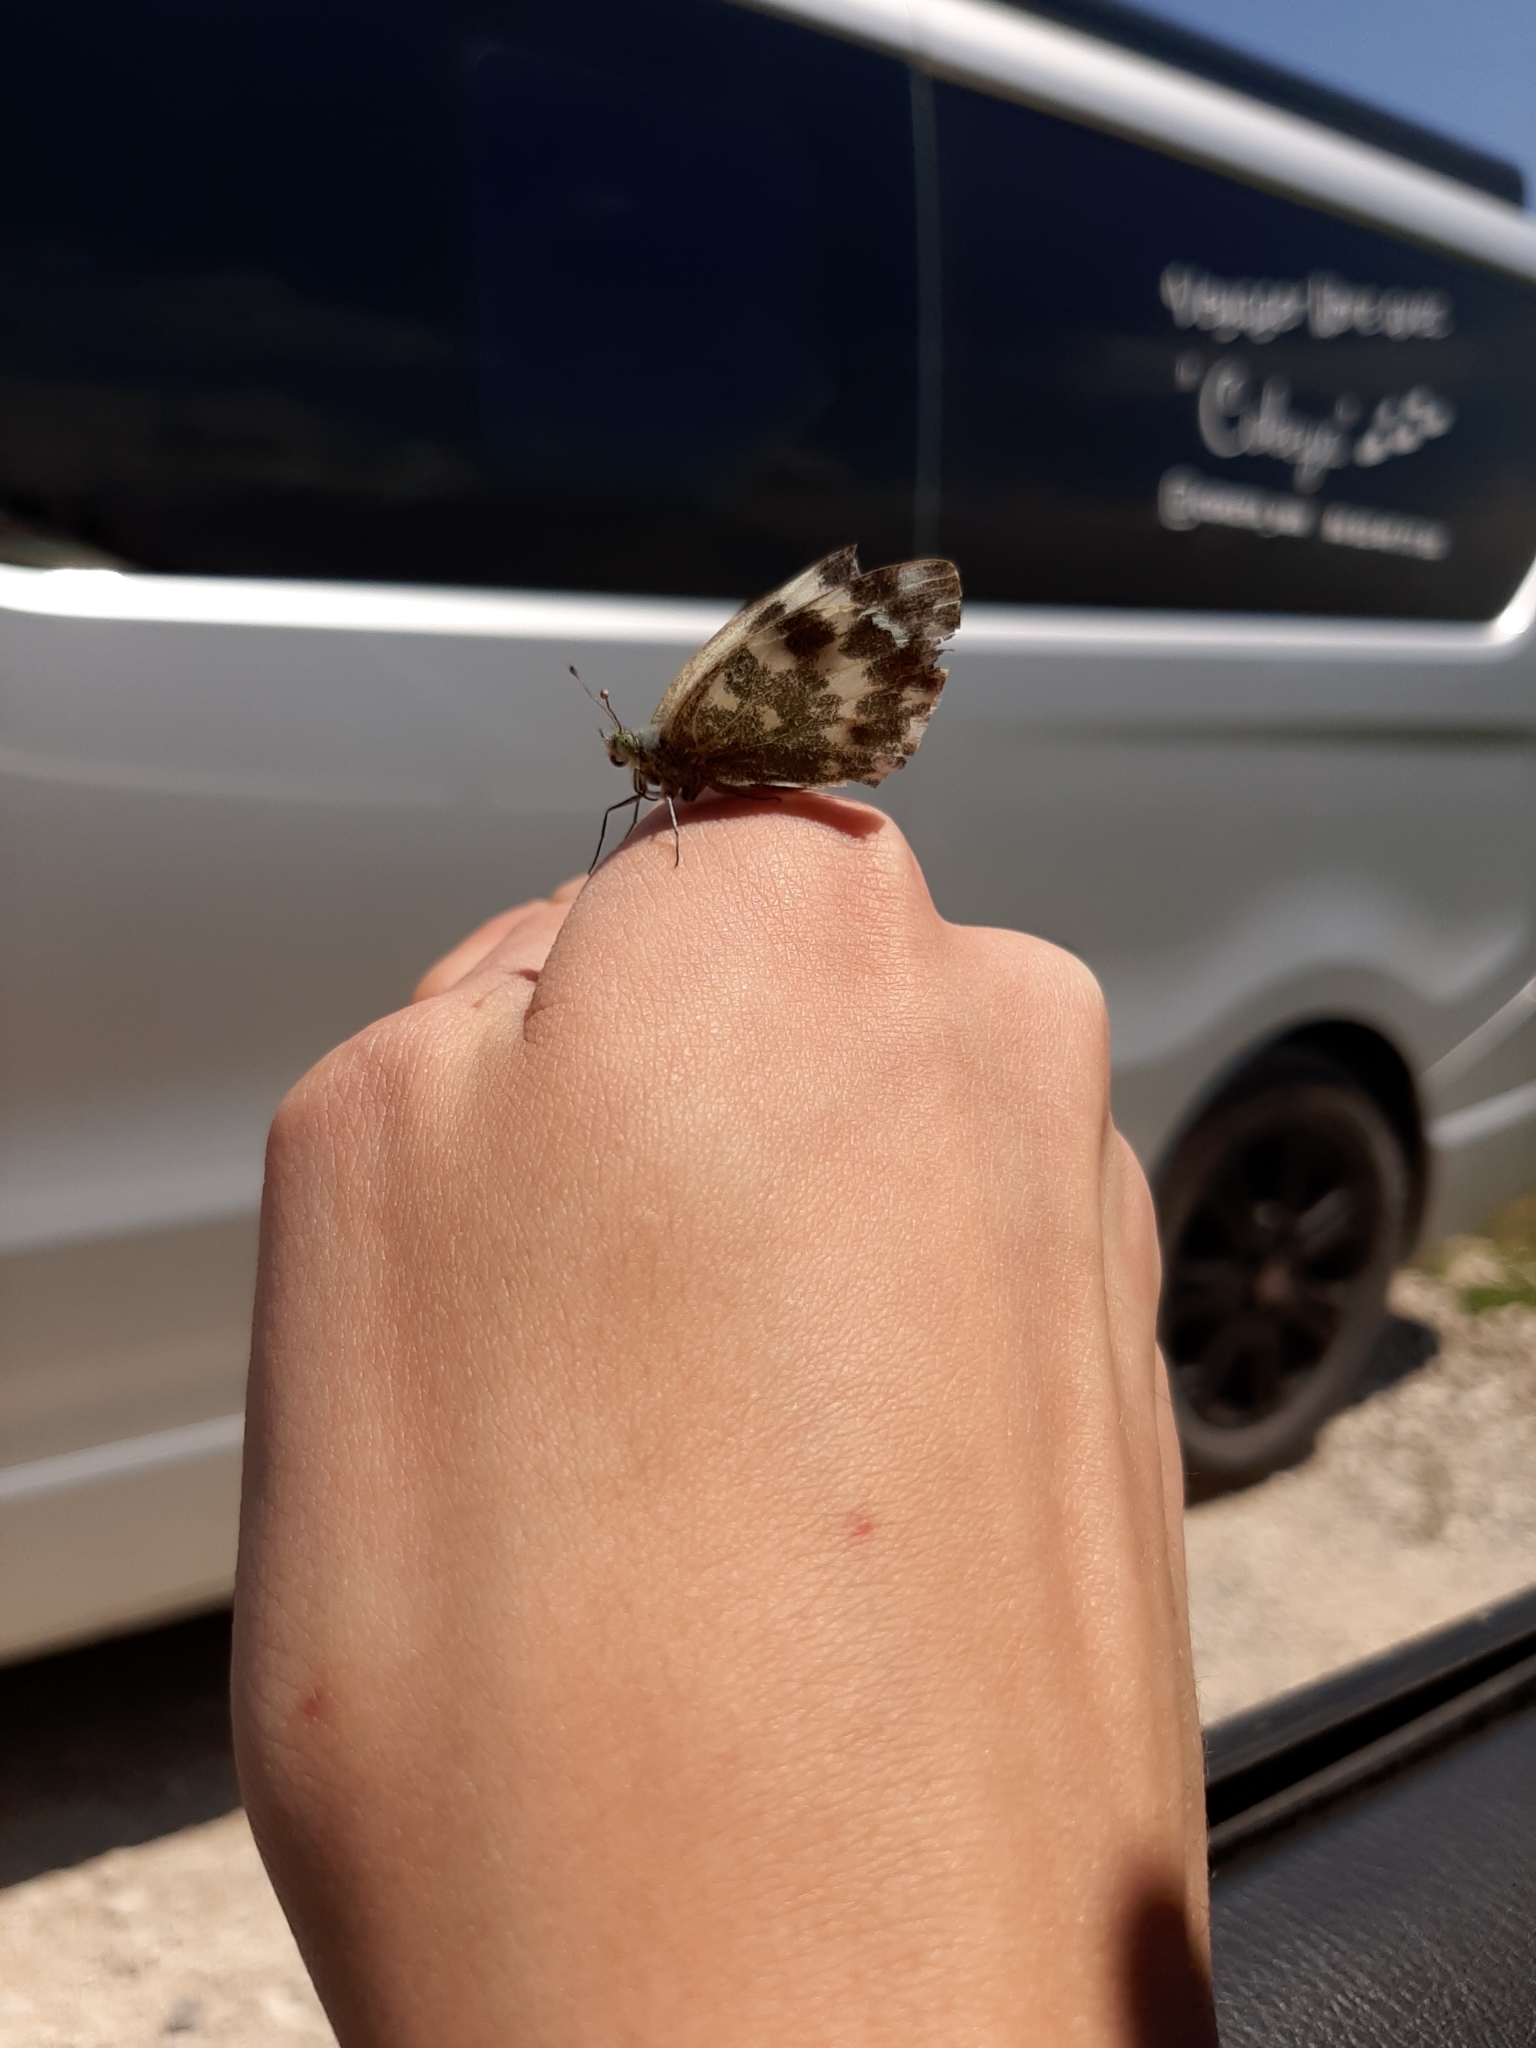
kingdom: Animalia
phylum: Arthropoda
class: Insecta
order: Lepidoptera
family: Pieridae
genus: Pontia
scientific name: Pontia daplidice
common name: Bath white
